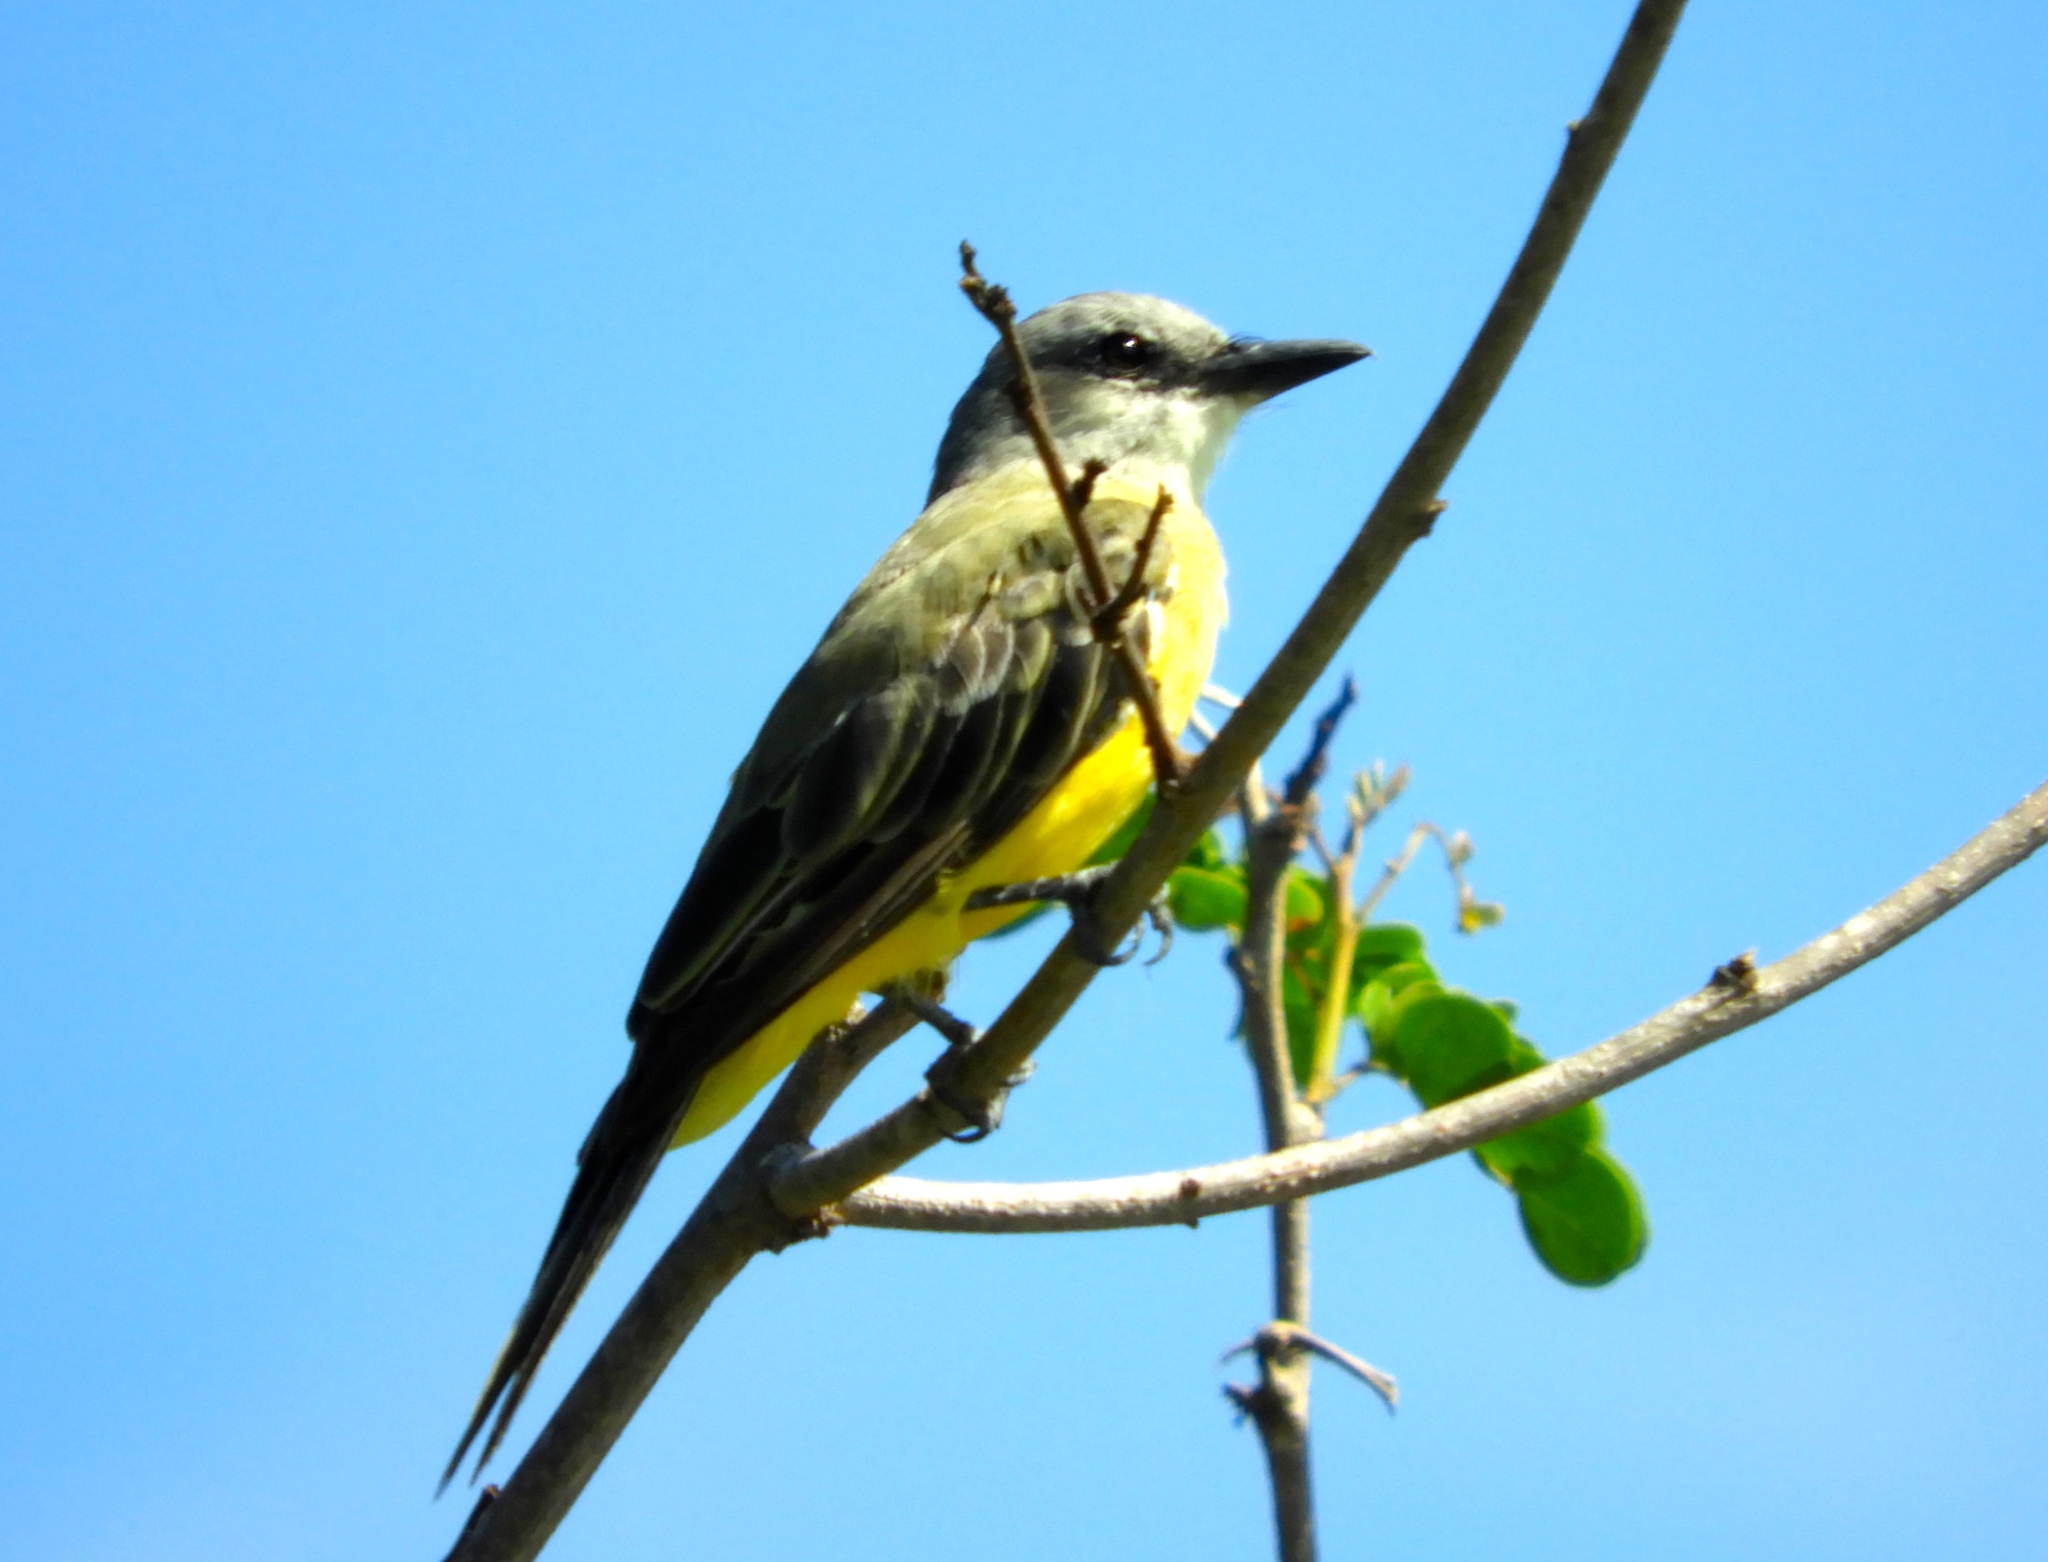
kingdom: Animalia
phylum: Chordata
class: Aves
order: Passeriformes
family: Tyrannidae
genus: Tyrannus
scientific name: Tyrannus melancholicus
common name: Tropical kingbird
